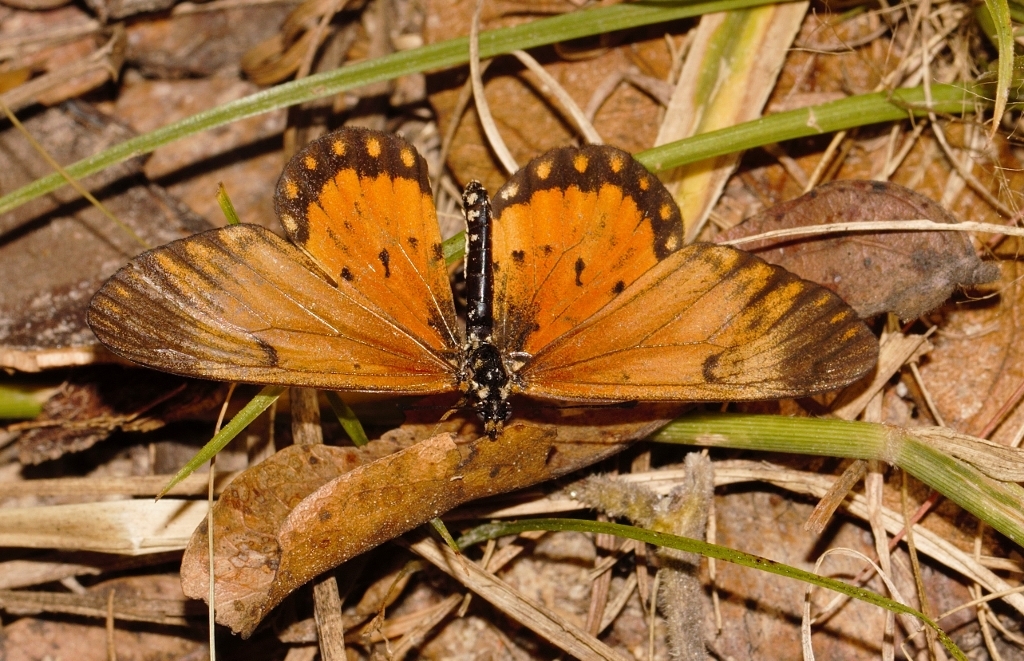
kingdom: Animalia
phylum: Arthropoda
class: Insecta
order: Lepidoptera
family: Nymphalidae
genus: Acraea
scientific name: Acraea Telchinia serena
